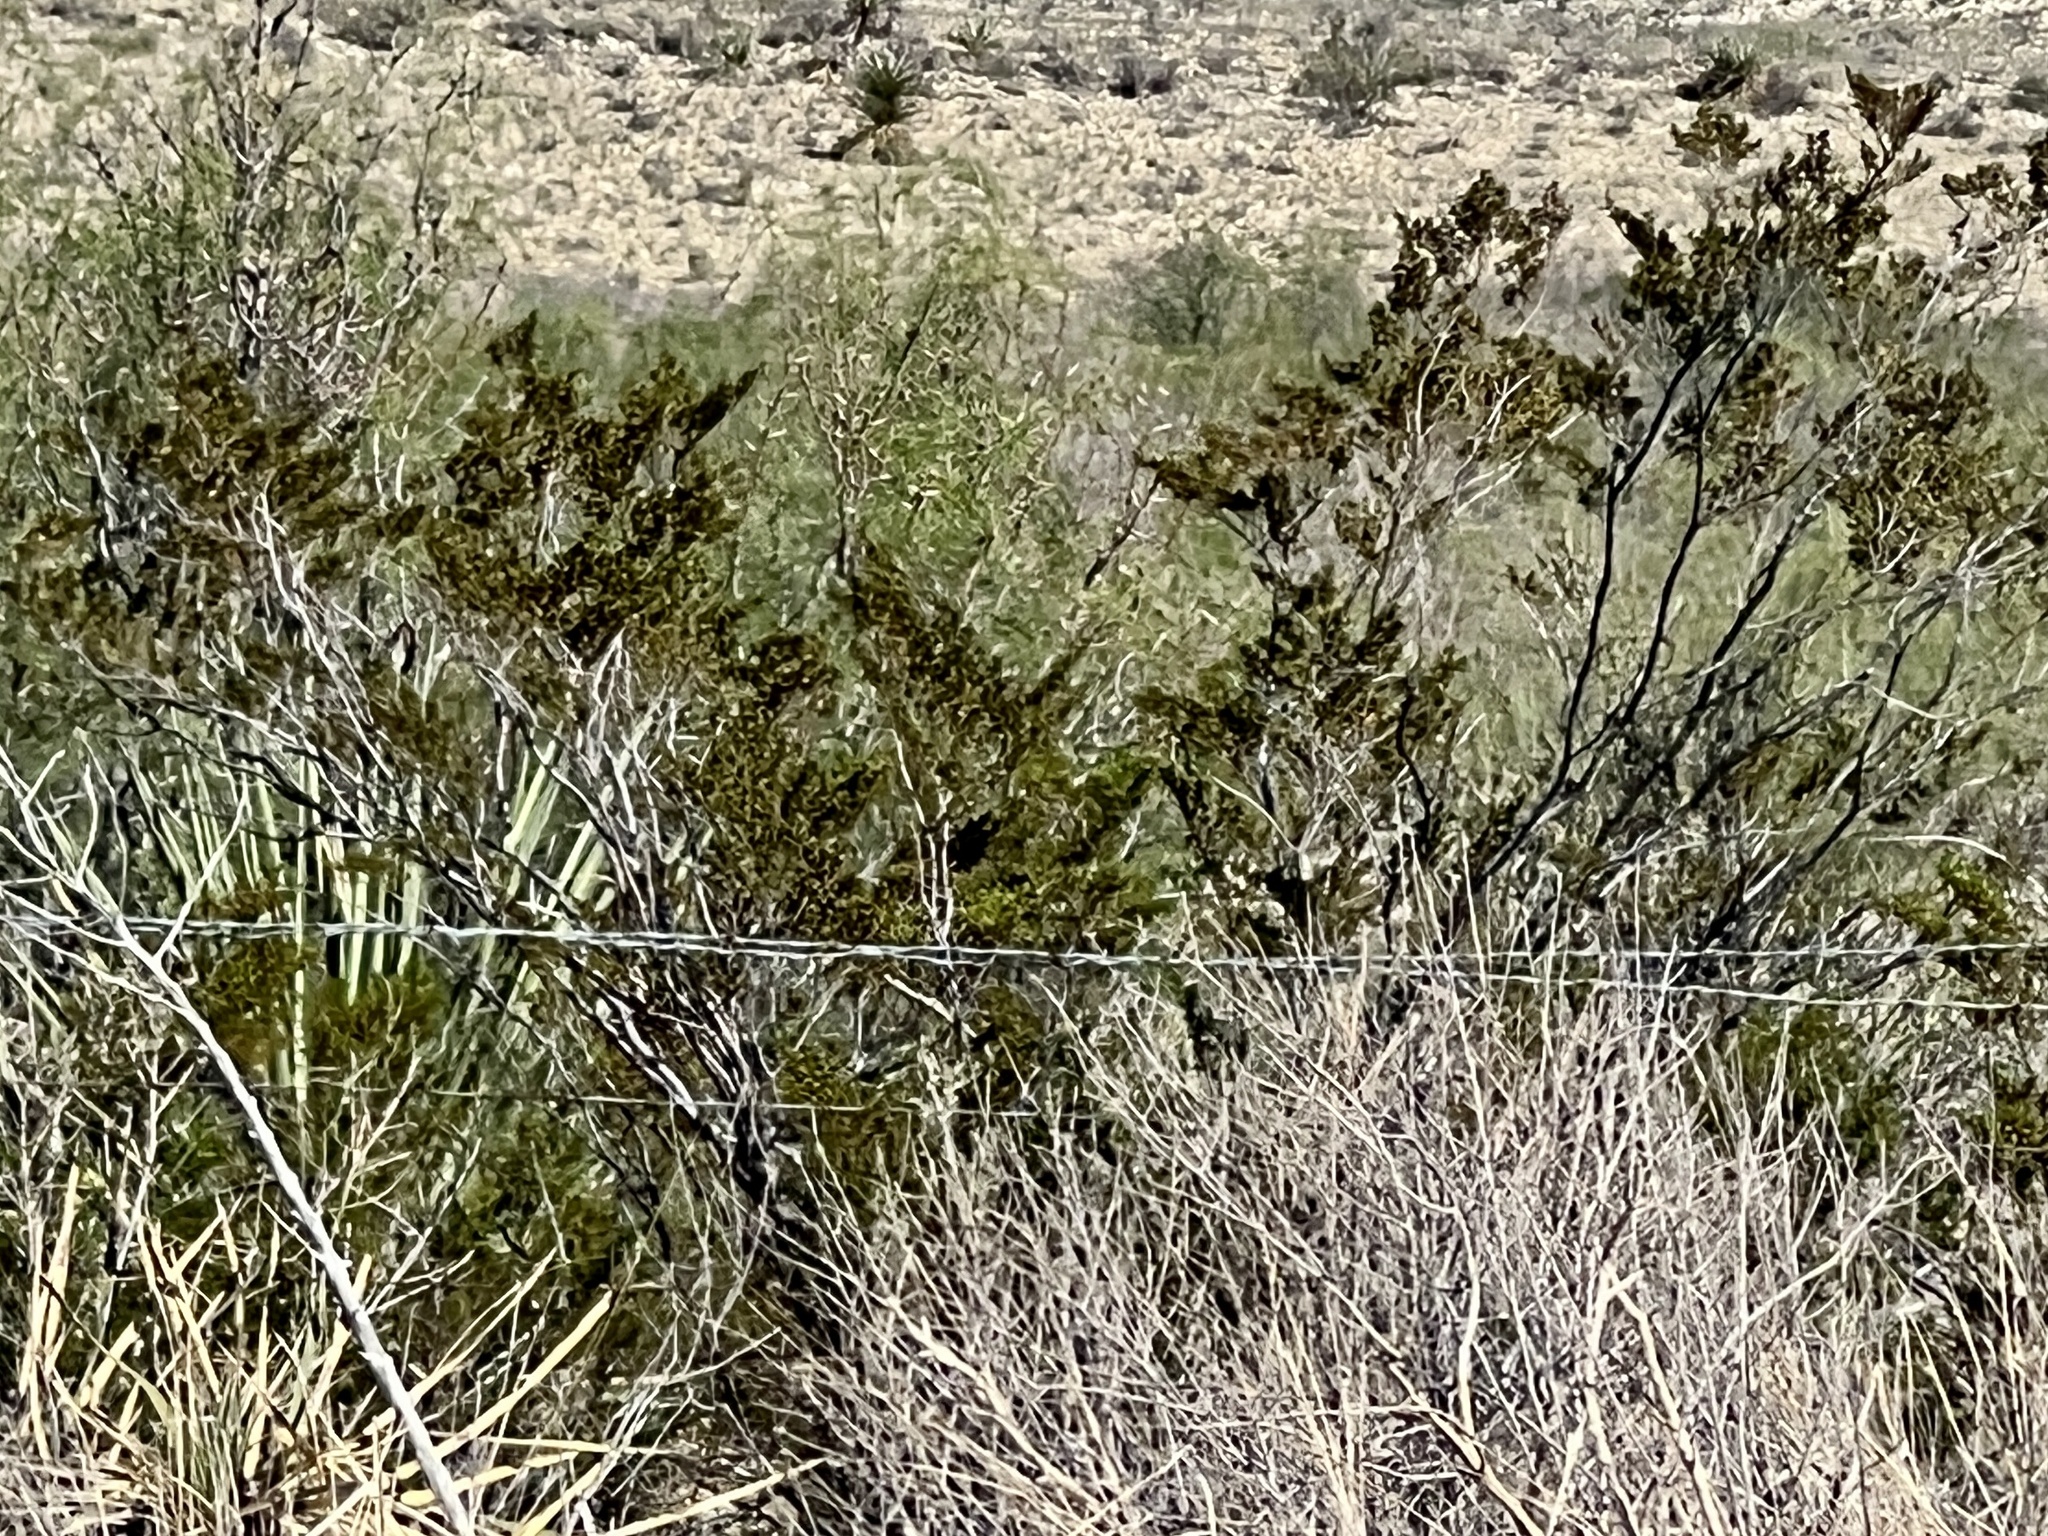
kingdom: Plantae
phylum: Tracheophyta
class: Magnoliopsida
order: Zygophyllales
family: Zygophyllaceae
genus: Larrea
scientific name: Larrea tridentata
